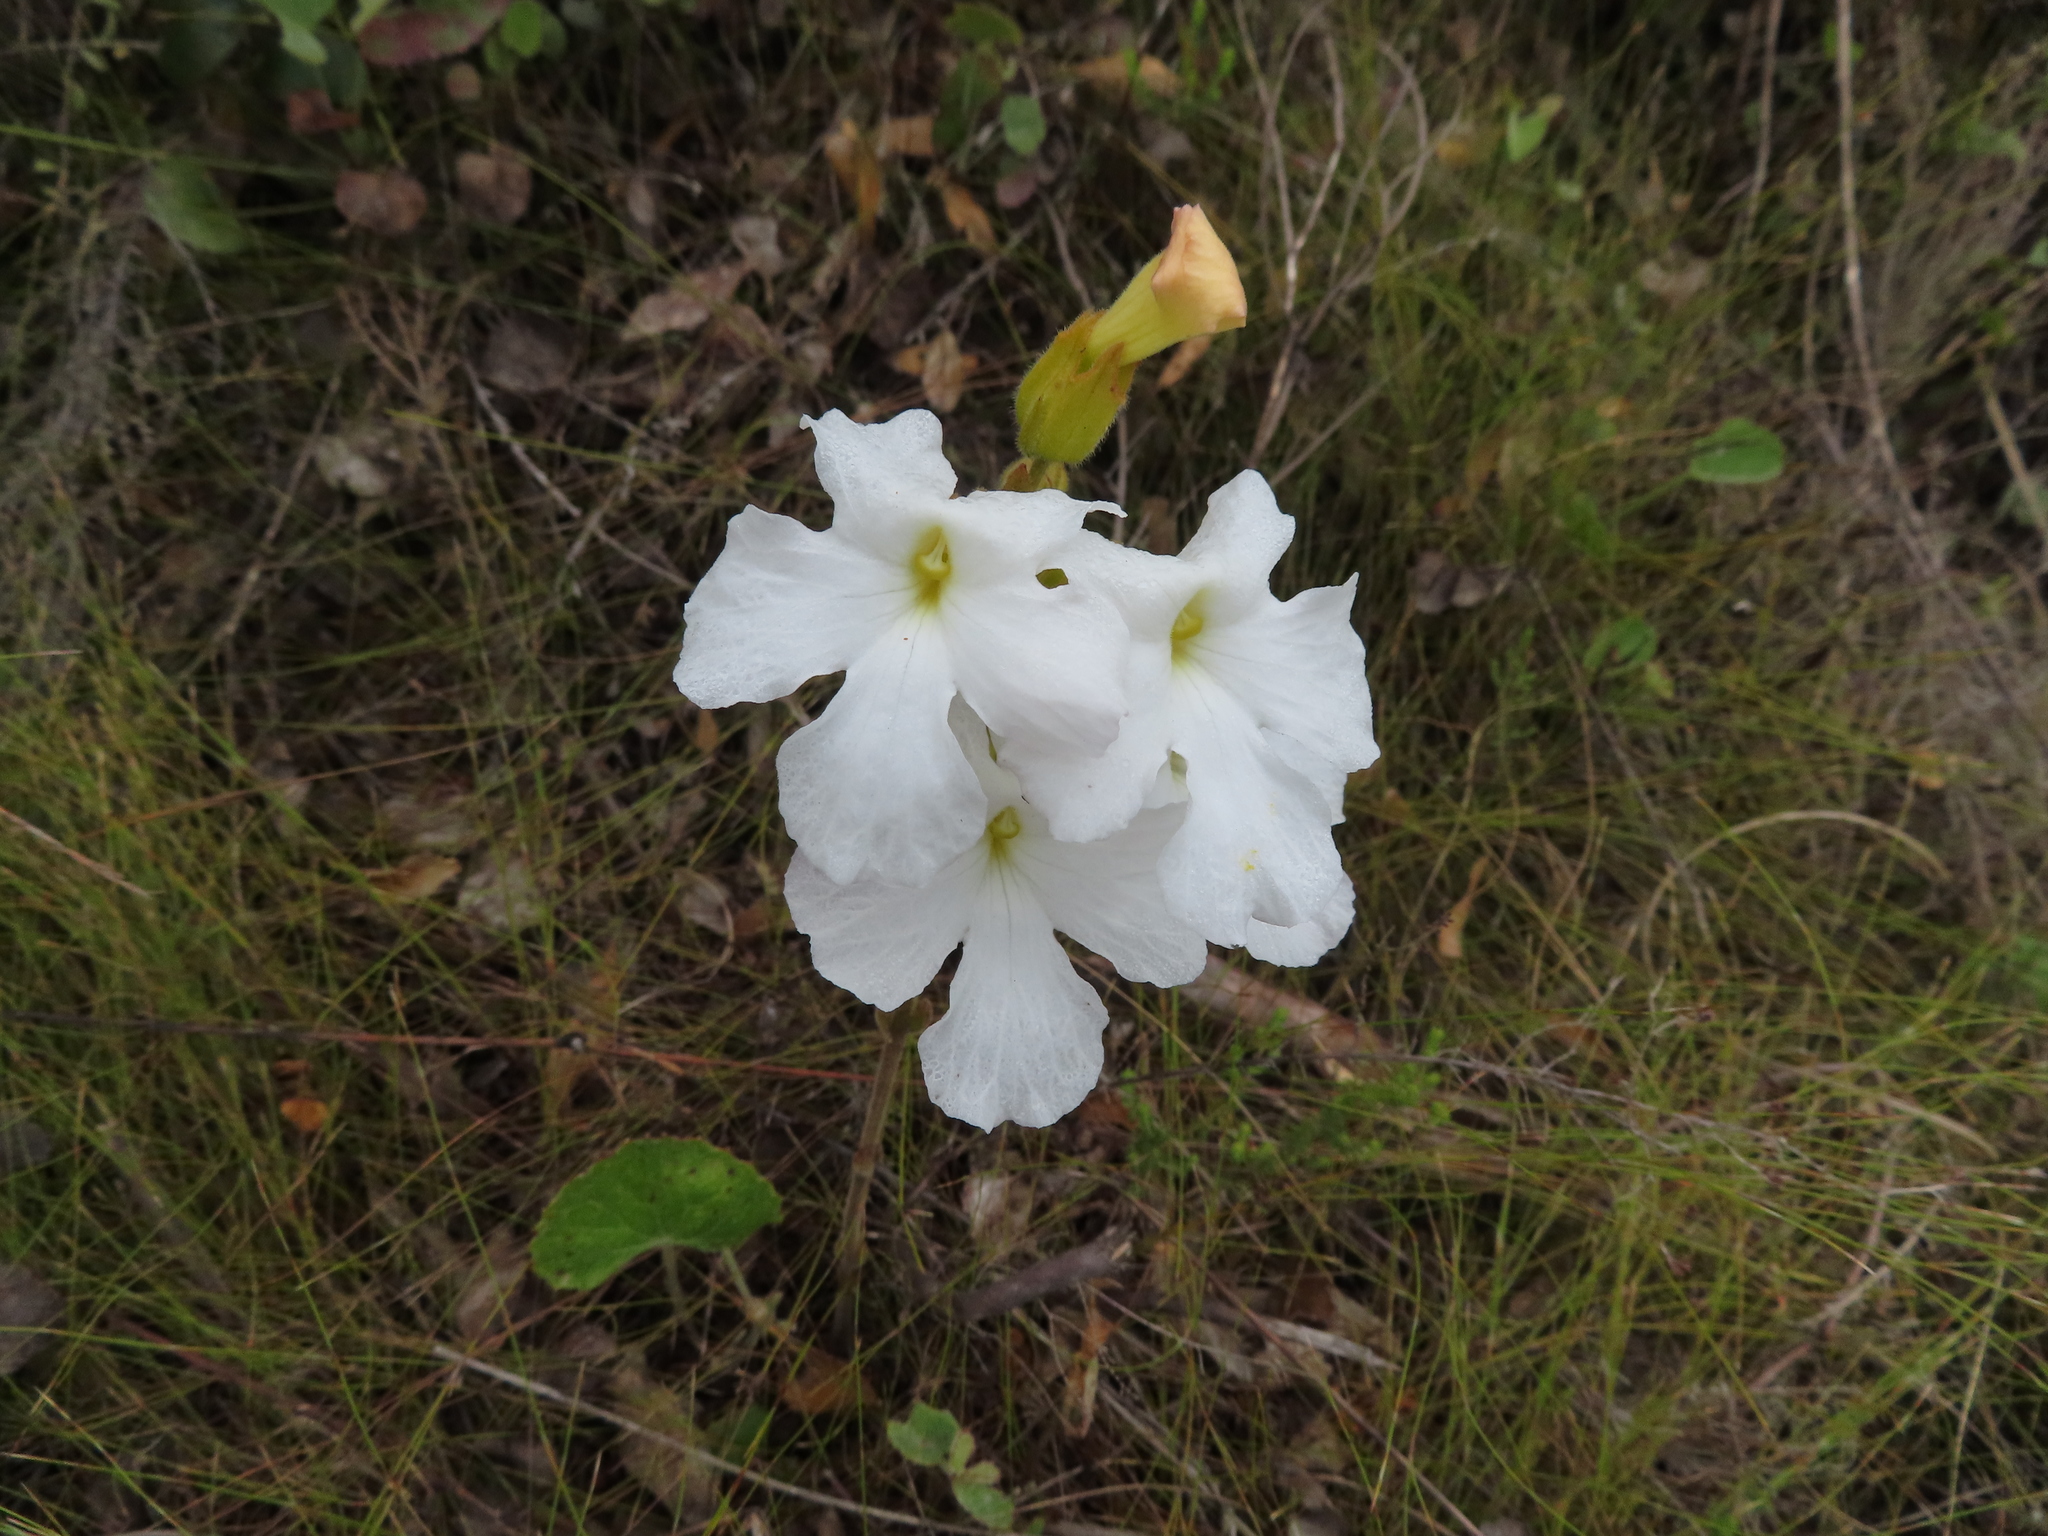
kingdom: Plantae
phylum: Tracheophyta
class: Magnoliopsida
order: Lamiales
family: Orobanchaceae
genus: Harveya
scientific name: Harveya capensis
